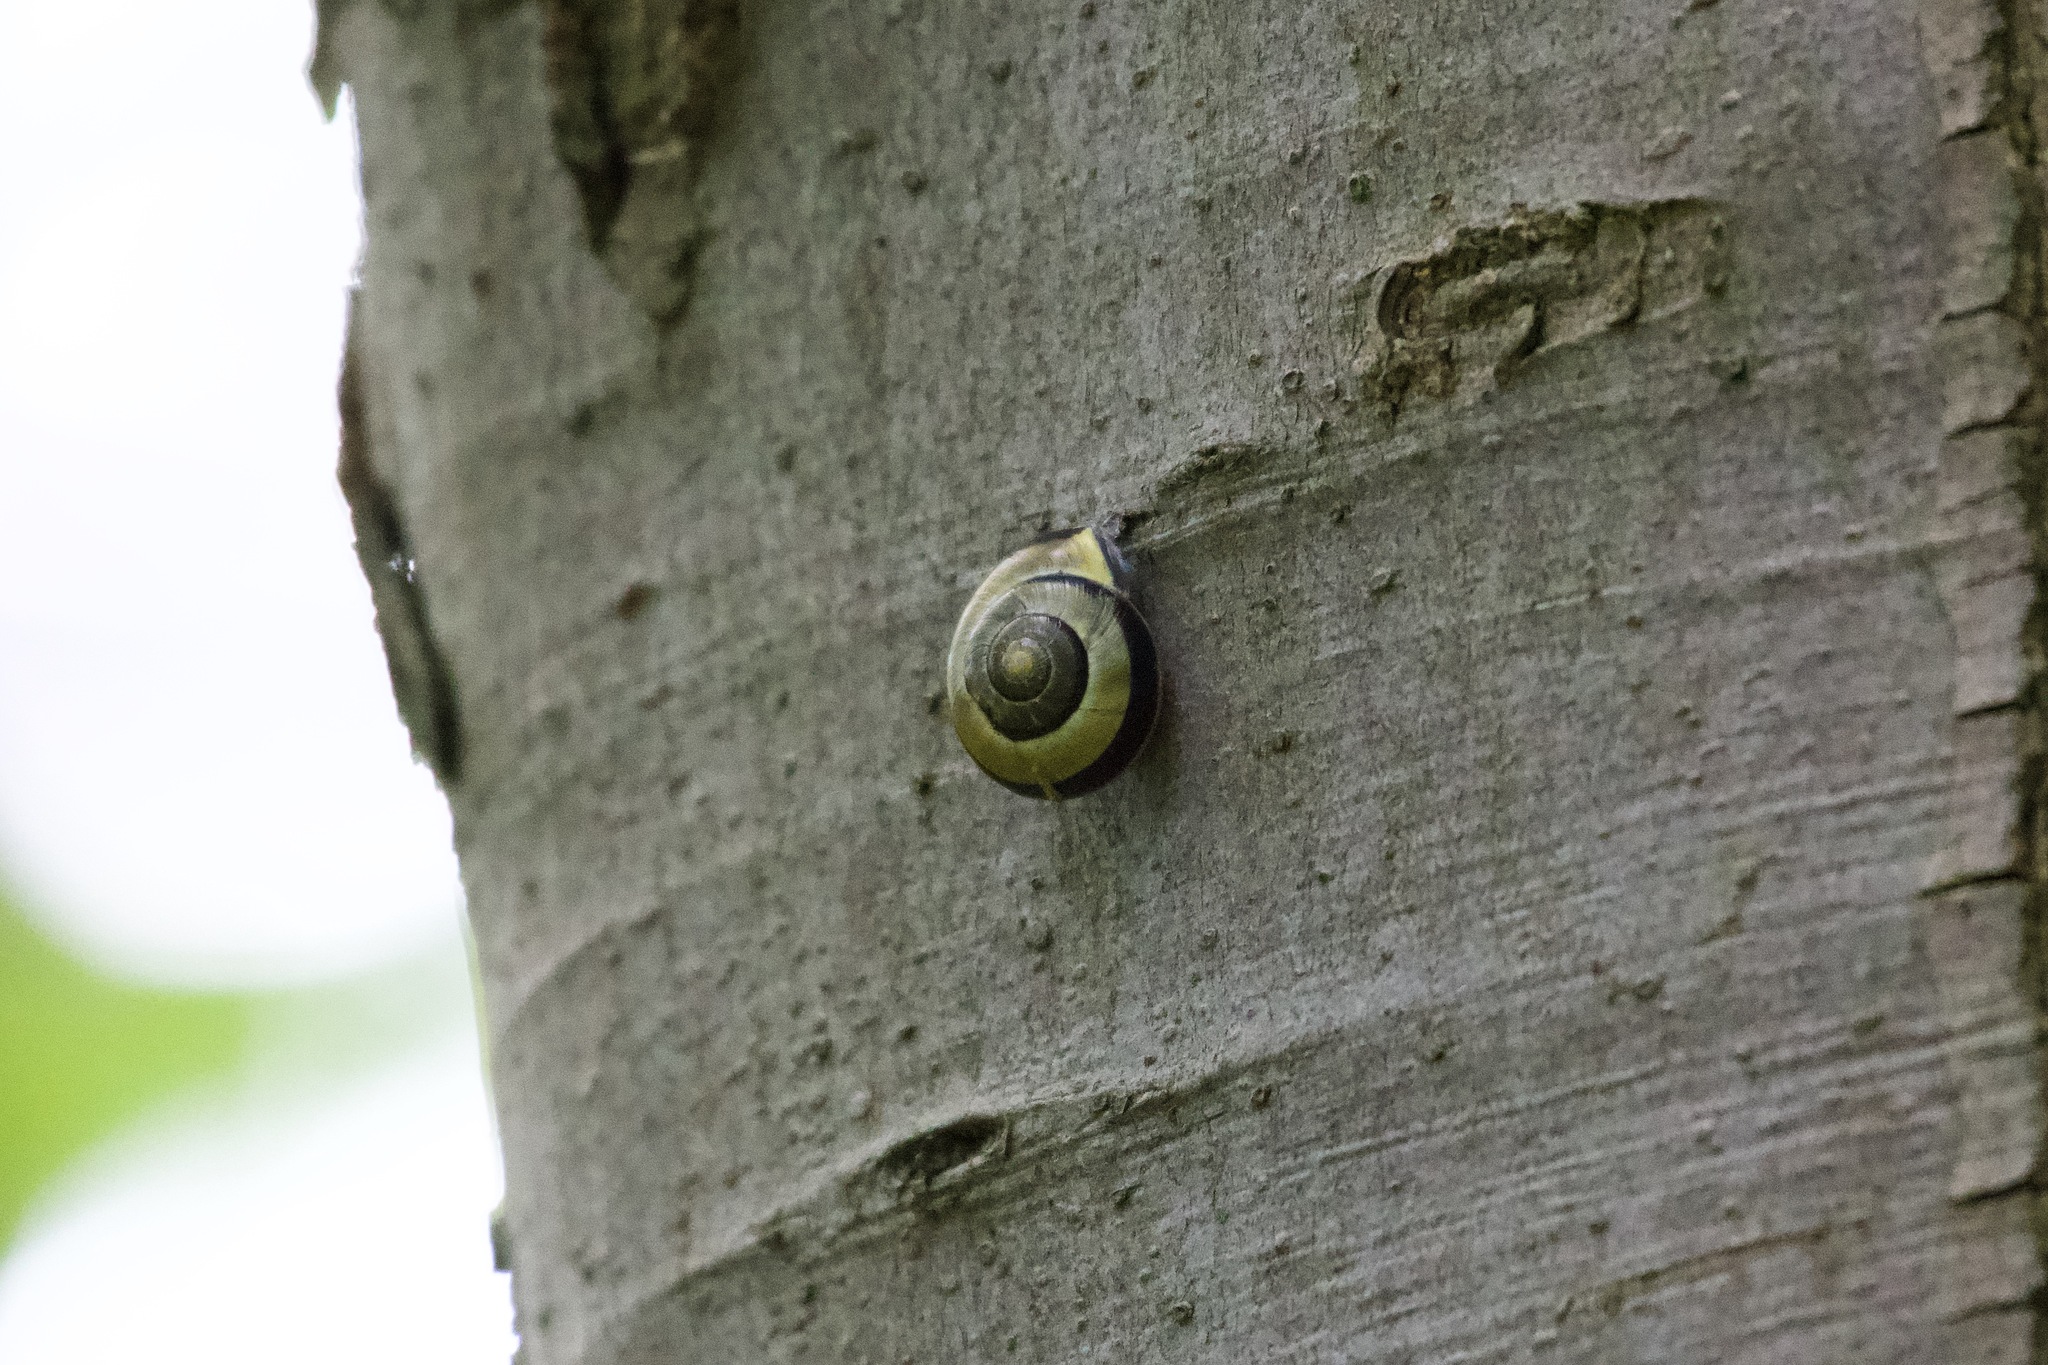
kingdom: Animalia
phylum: Mollusca
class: Gastropoda
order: Stylommatophora
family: Helicidae
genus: Cepaea
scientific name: Cepaea nemoralis
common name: Grovesnail
